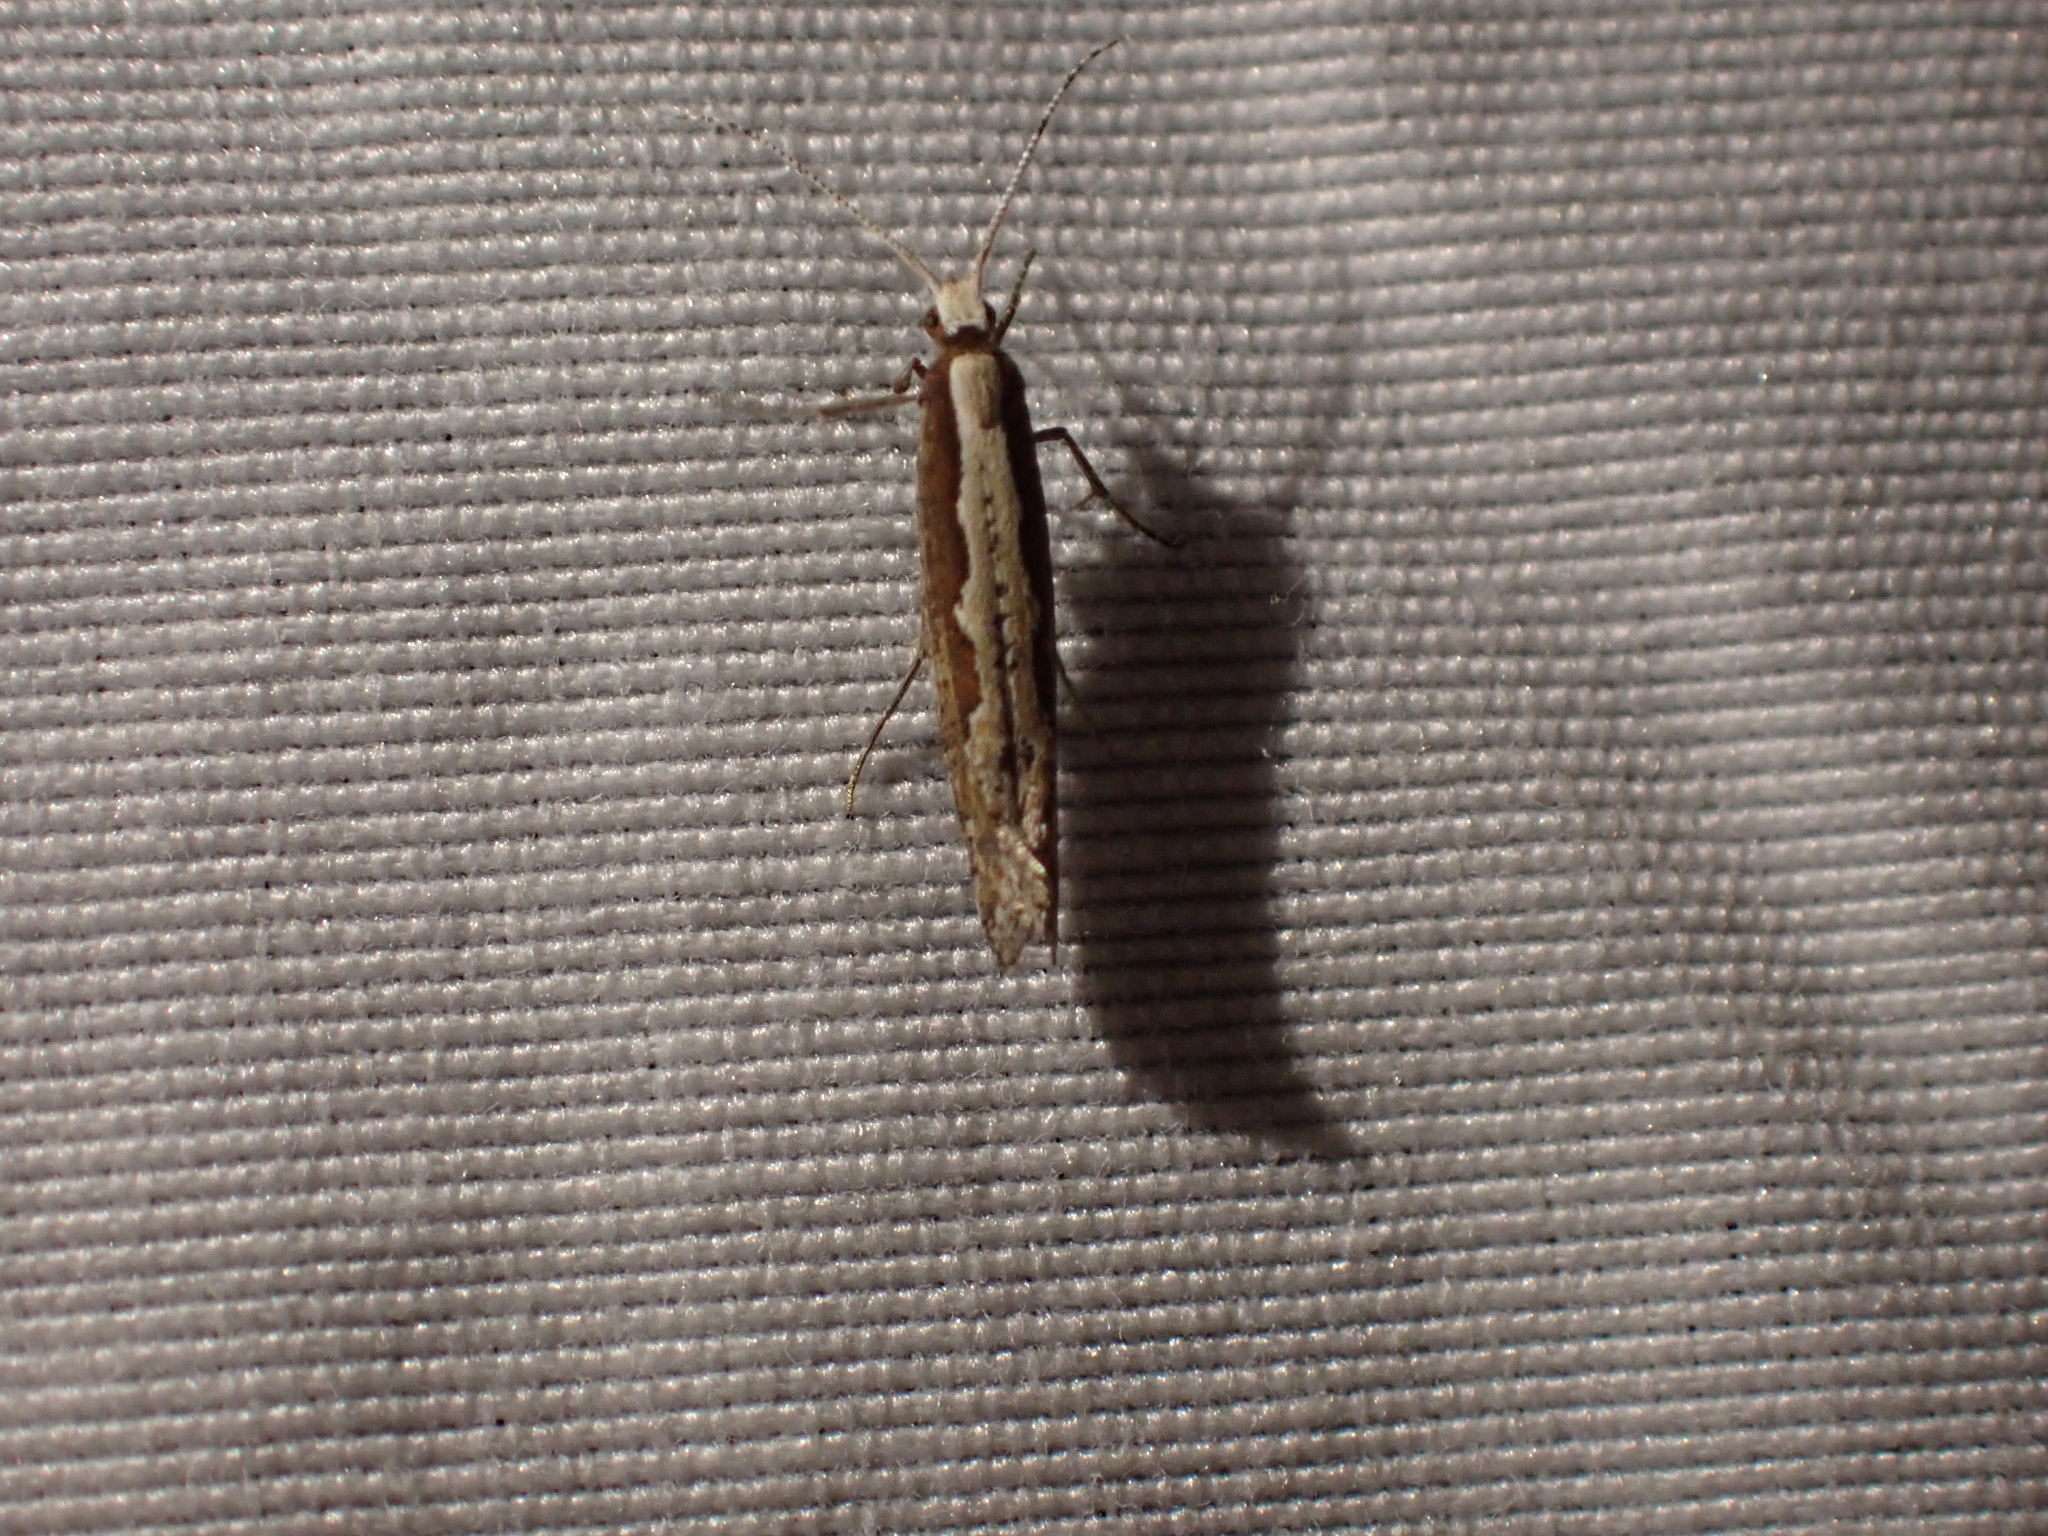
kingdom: Animalia
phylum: Arthropoda
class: Insecta
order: Lepidoptera
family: Plutellidae
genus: Plutella
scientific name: Plutella xylostella
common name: Diamond-back moth
